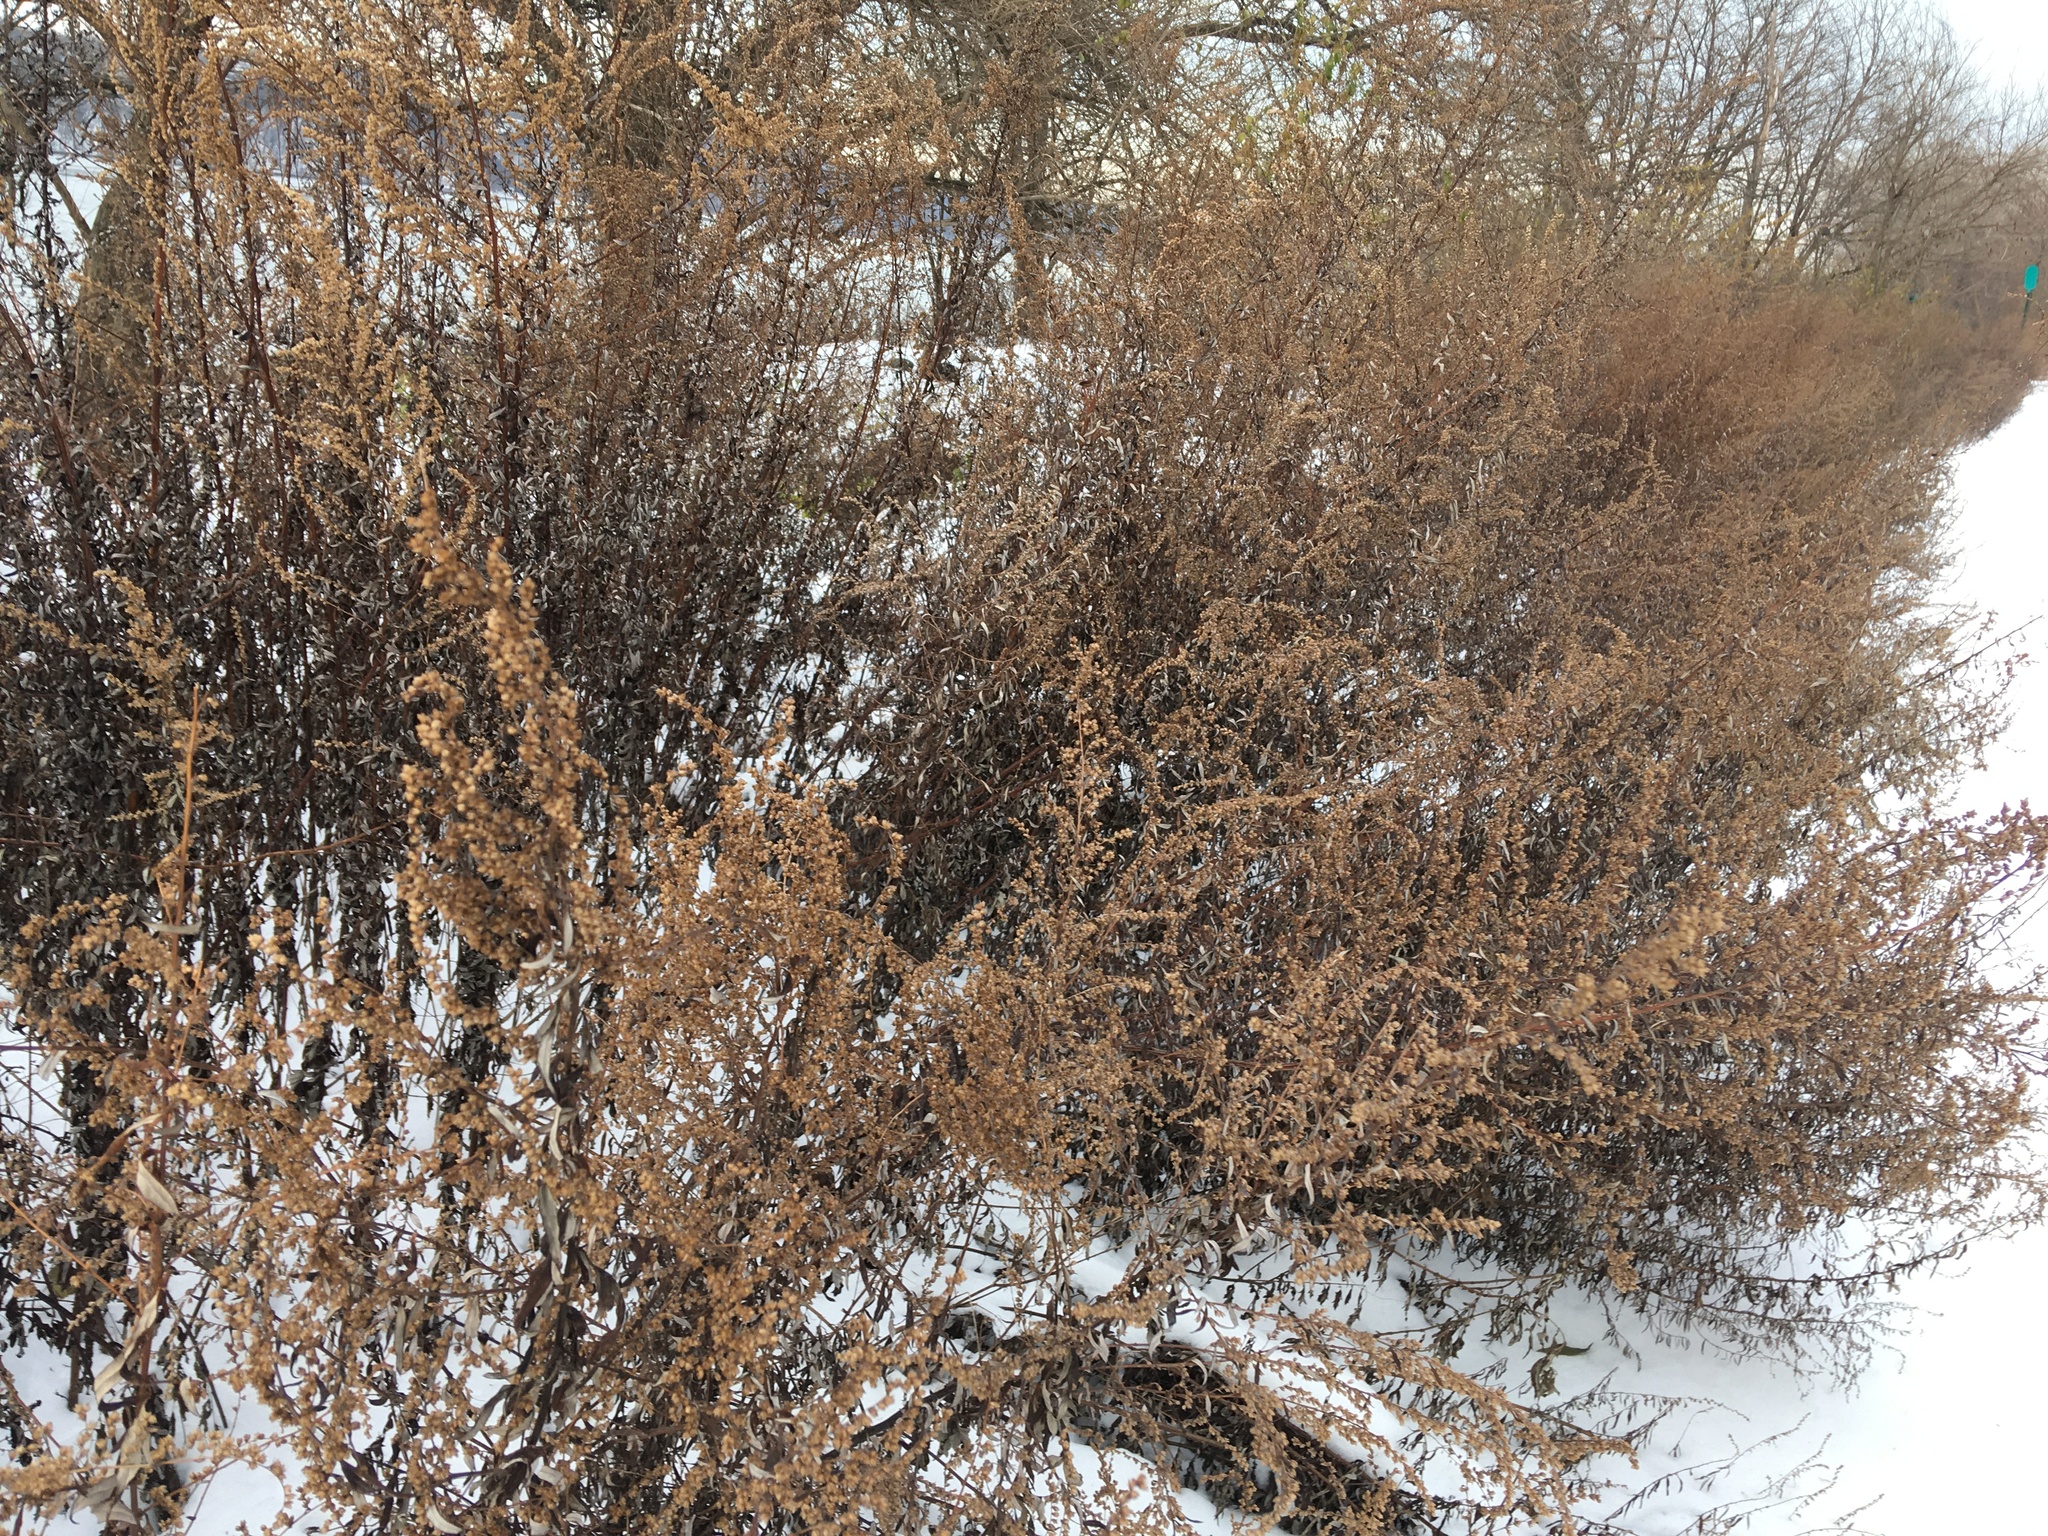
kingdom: Plantae
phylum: Tracheophyta
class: Magnoliopsida
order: Asterales
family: Asteraceae
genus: Artemisia
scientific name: Artemisia vulgaris
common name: Mugwort
